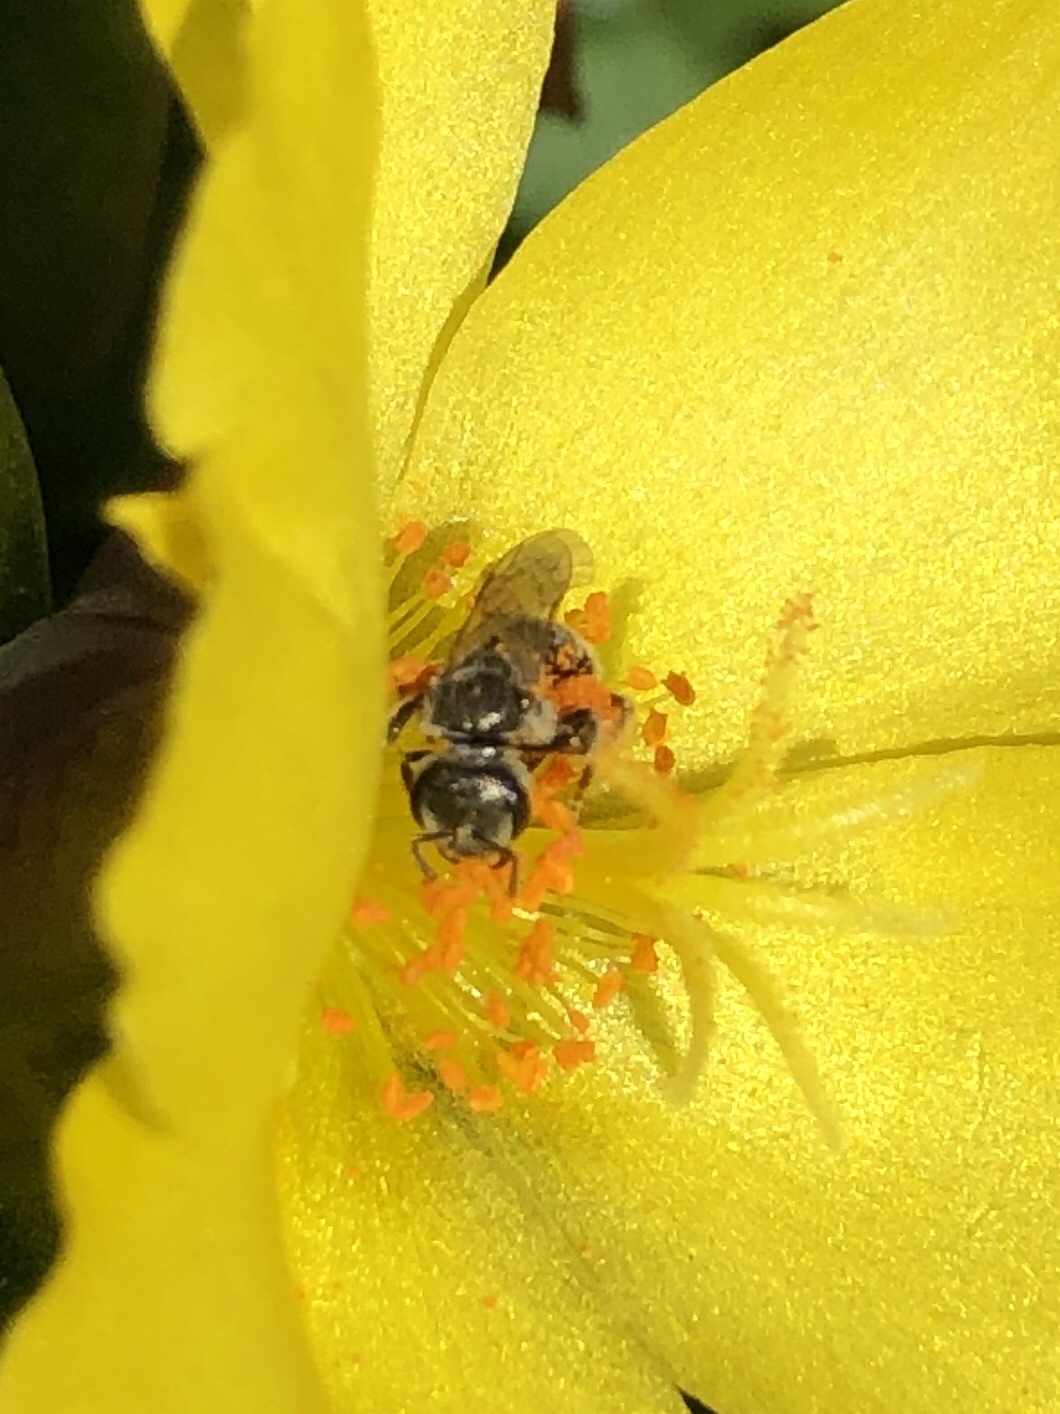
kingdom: Animalia
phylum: Arthropoda
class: Insecta
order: Hymenoptera
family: Halictidae
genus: Halictus
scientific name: Halictus tripartitus
